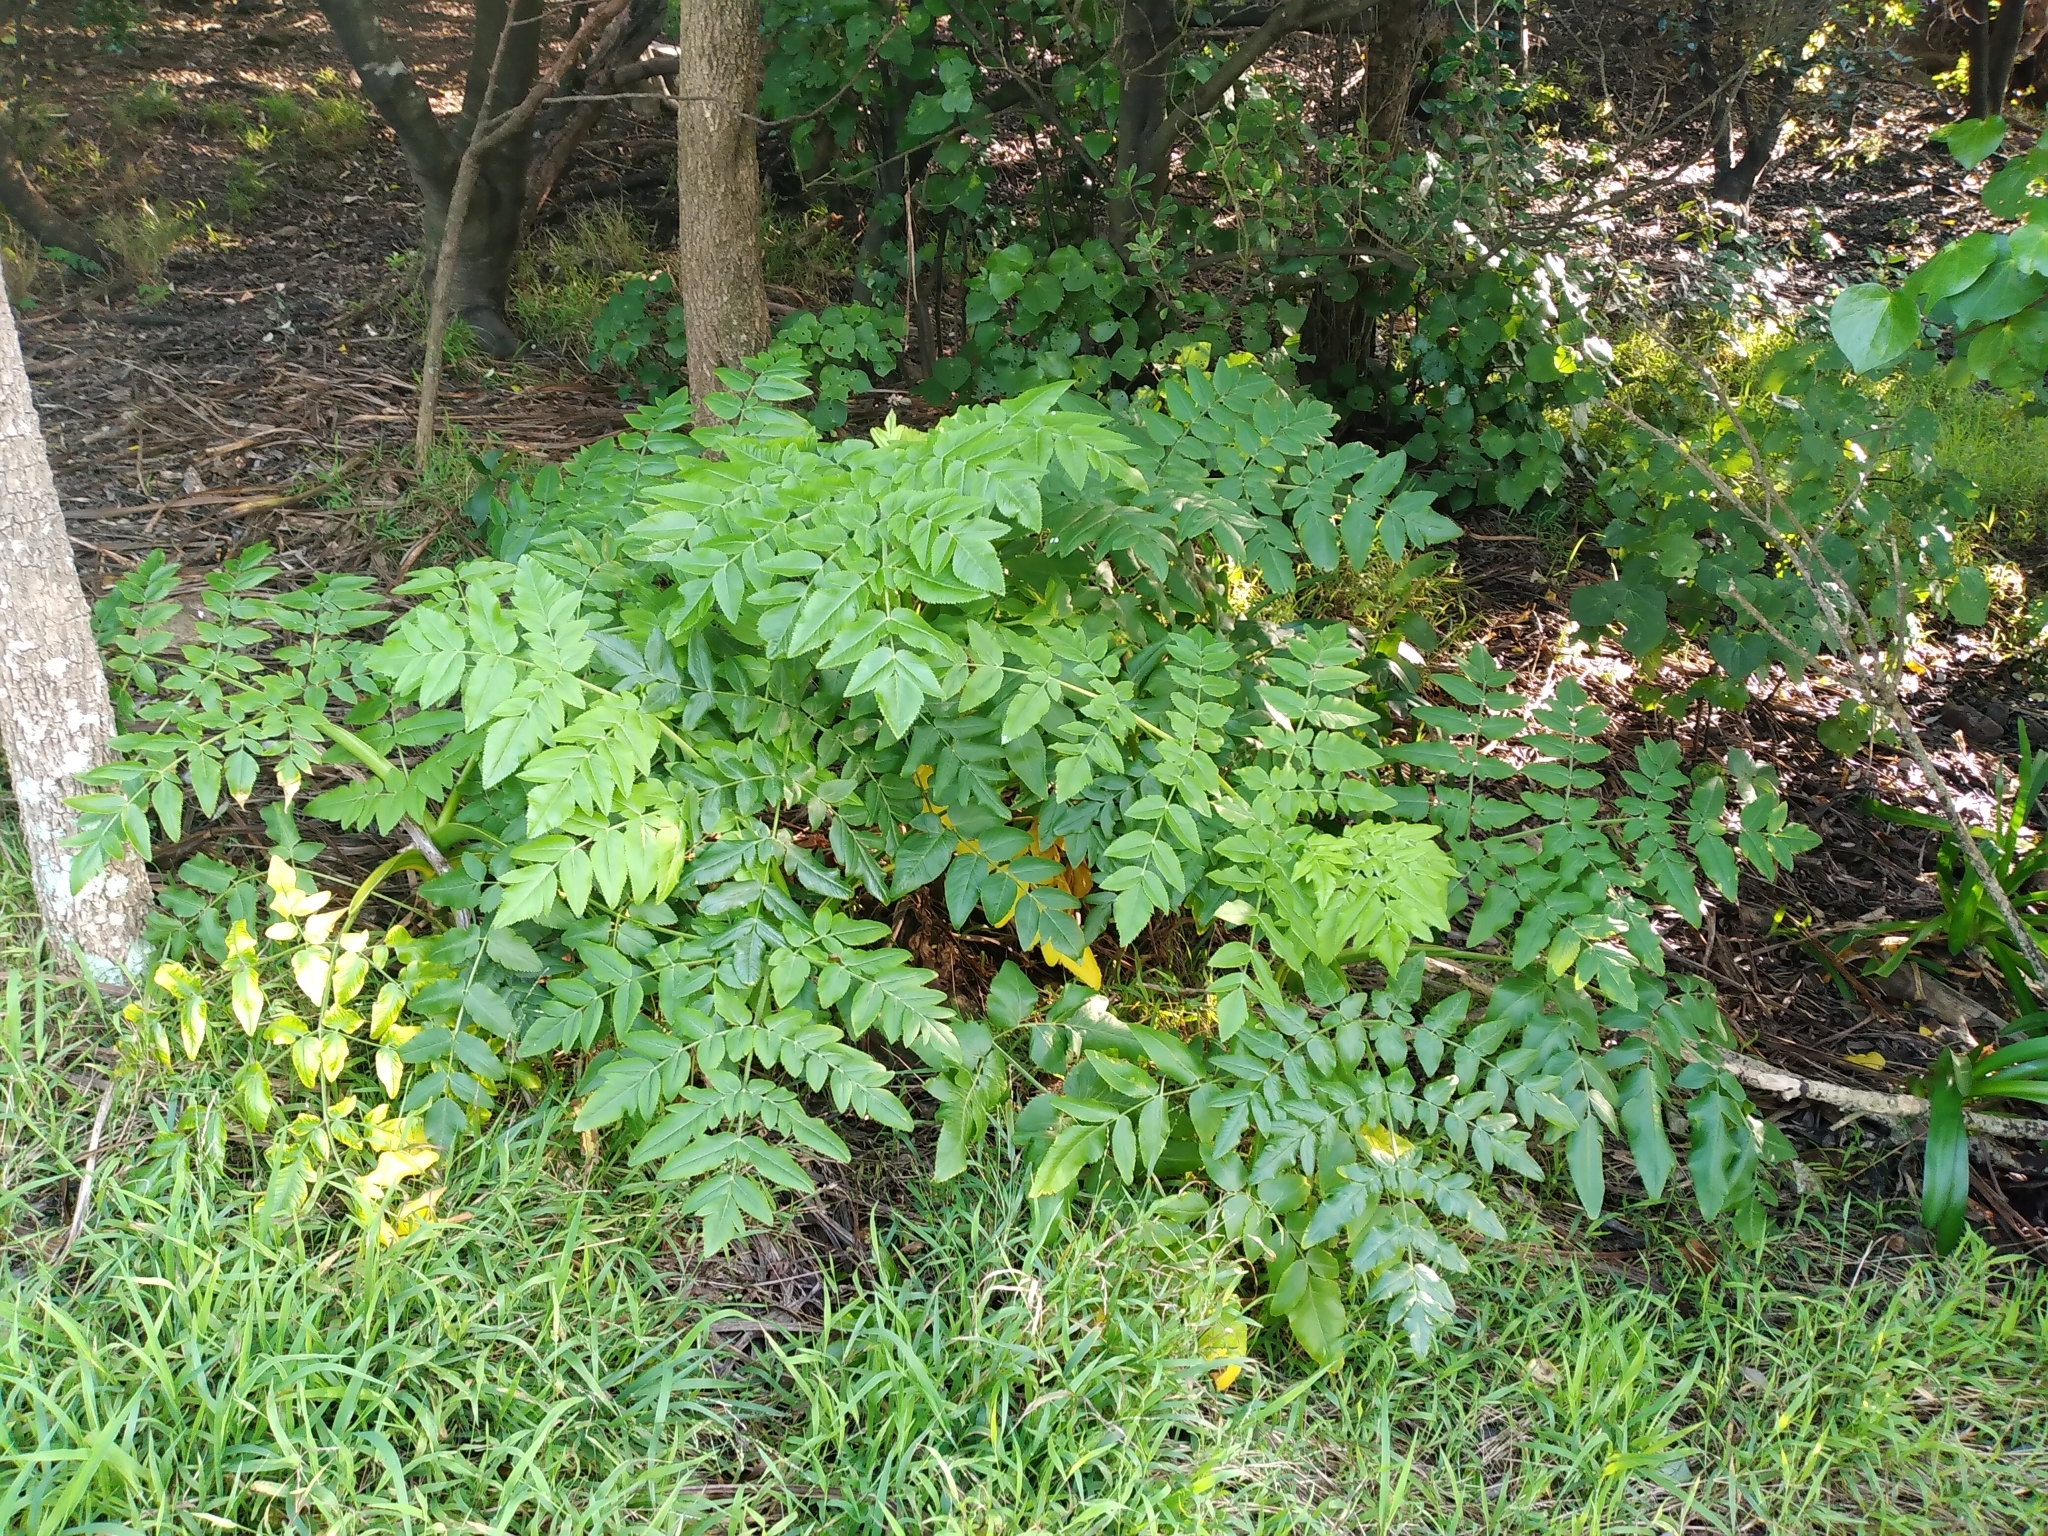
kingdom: Plantae
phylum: Tracheophyta
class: Magnoliopsida
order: Apiales
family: Apiaceae
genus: Daucus
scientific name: Daucus decipiens
